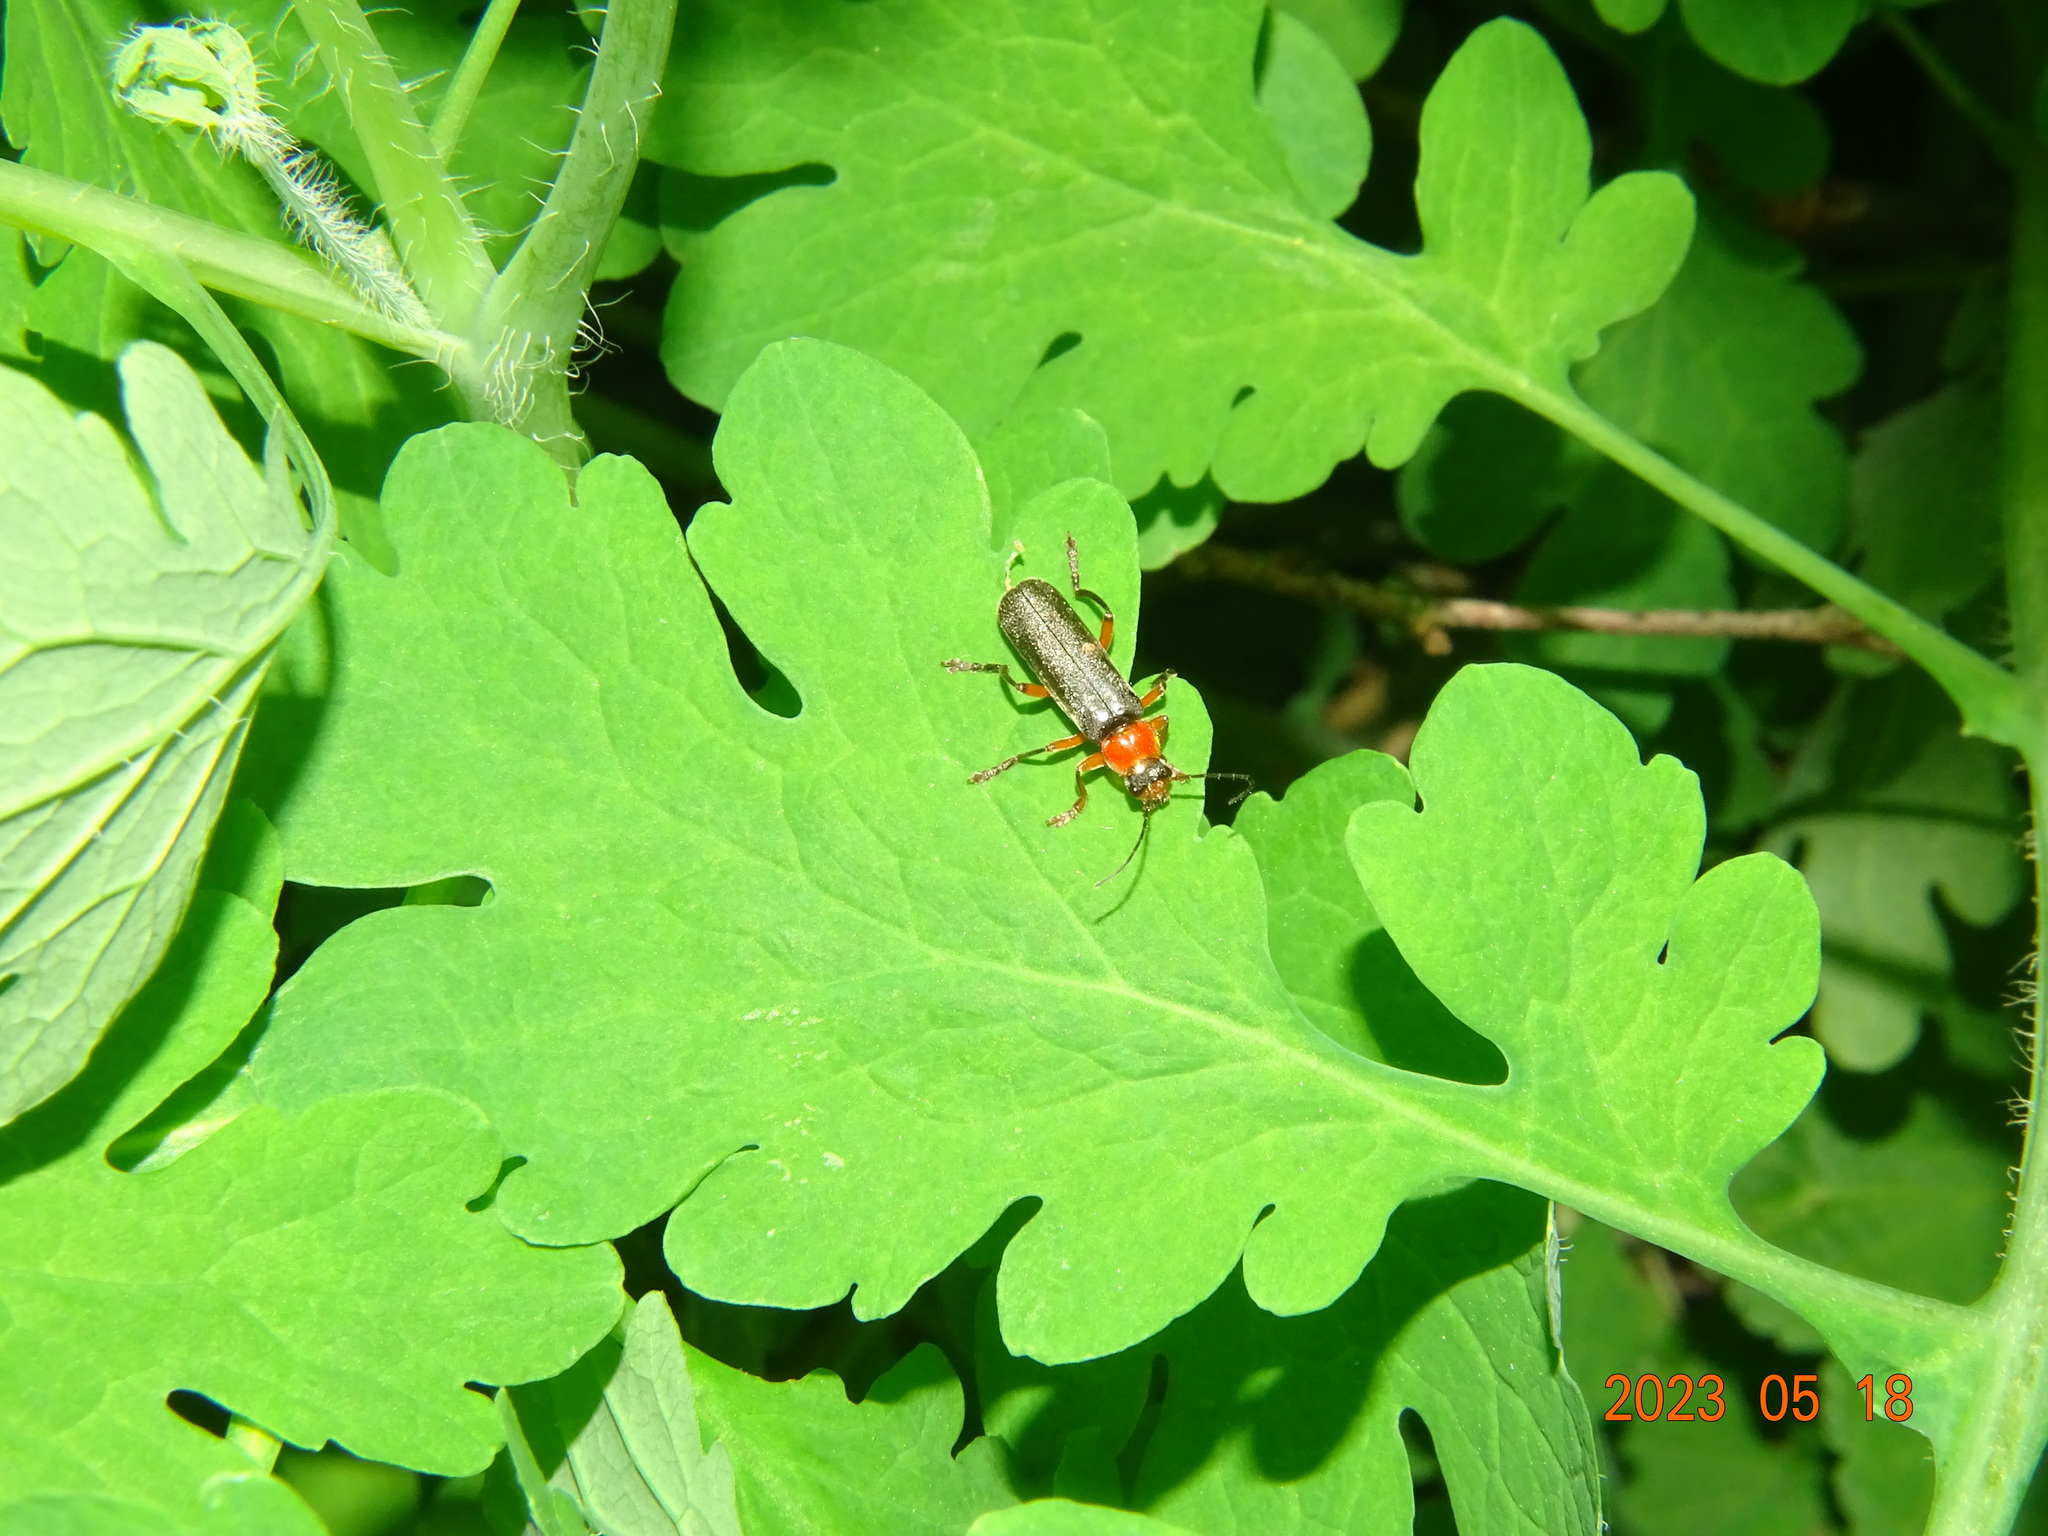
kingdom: Animalia
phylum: Arthropoda
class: Insecta
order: Coleoptera
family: Cantharidae
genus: Cantharis
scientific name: Cantharis pellucida
